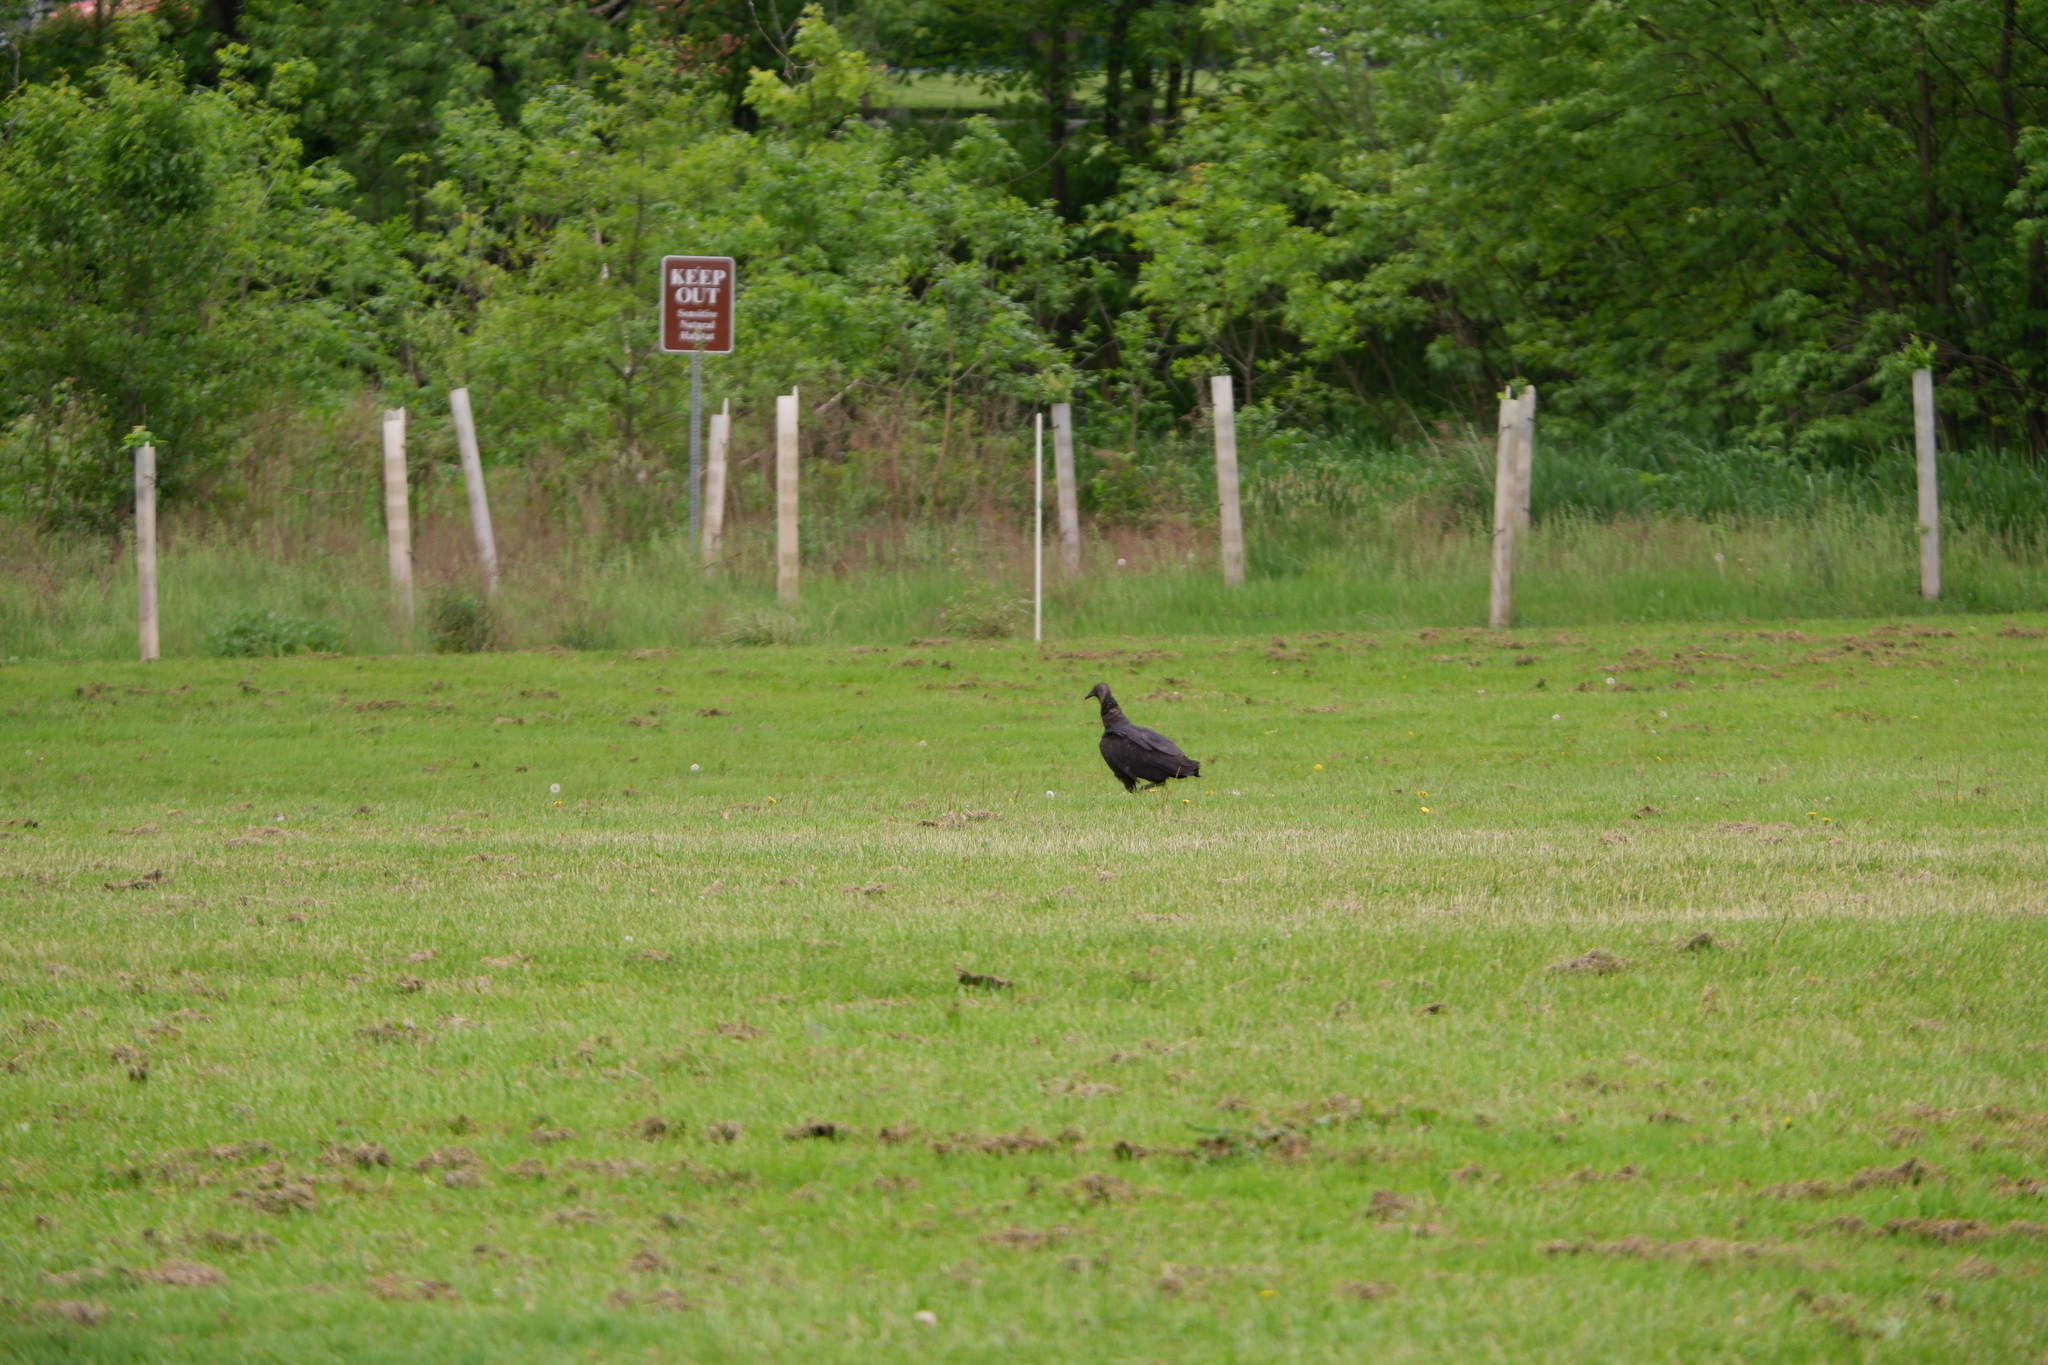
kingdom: Animalia
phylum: Chordata
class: Aves
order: Accipitriformes
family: Cathartidae
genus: Coragyps
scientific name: Coragyps atratus
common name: Black vulture
